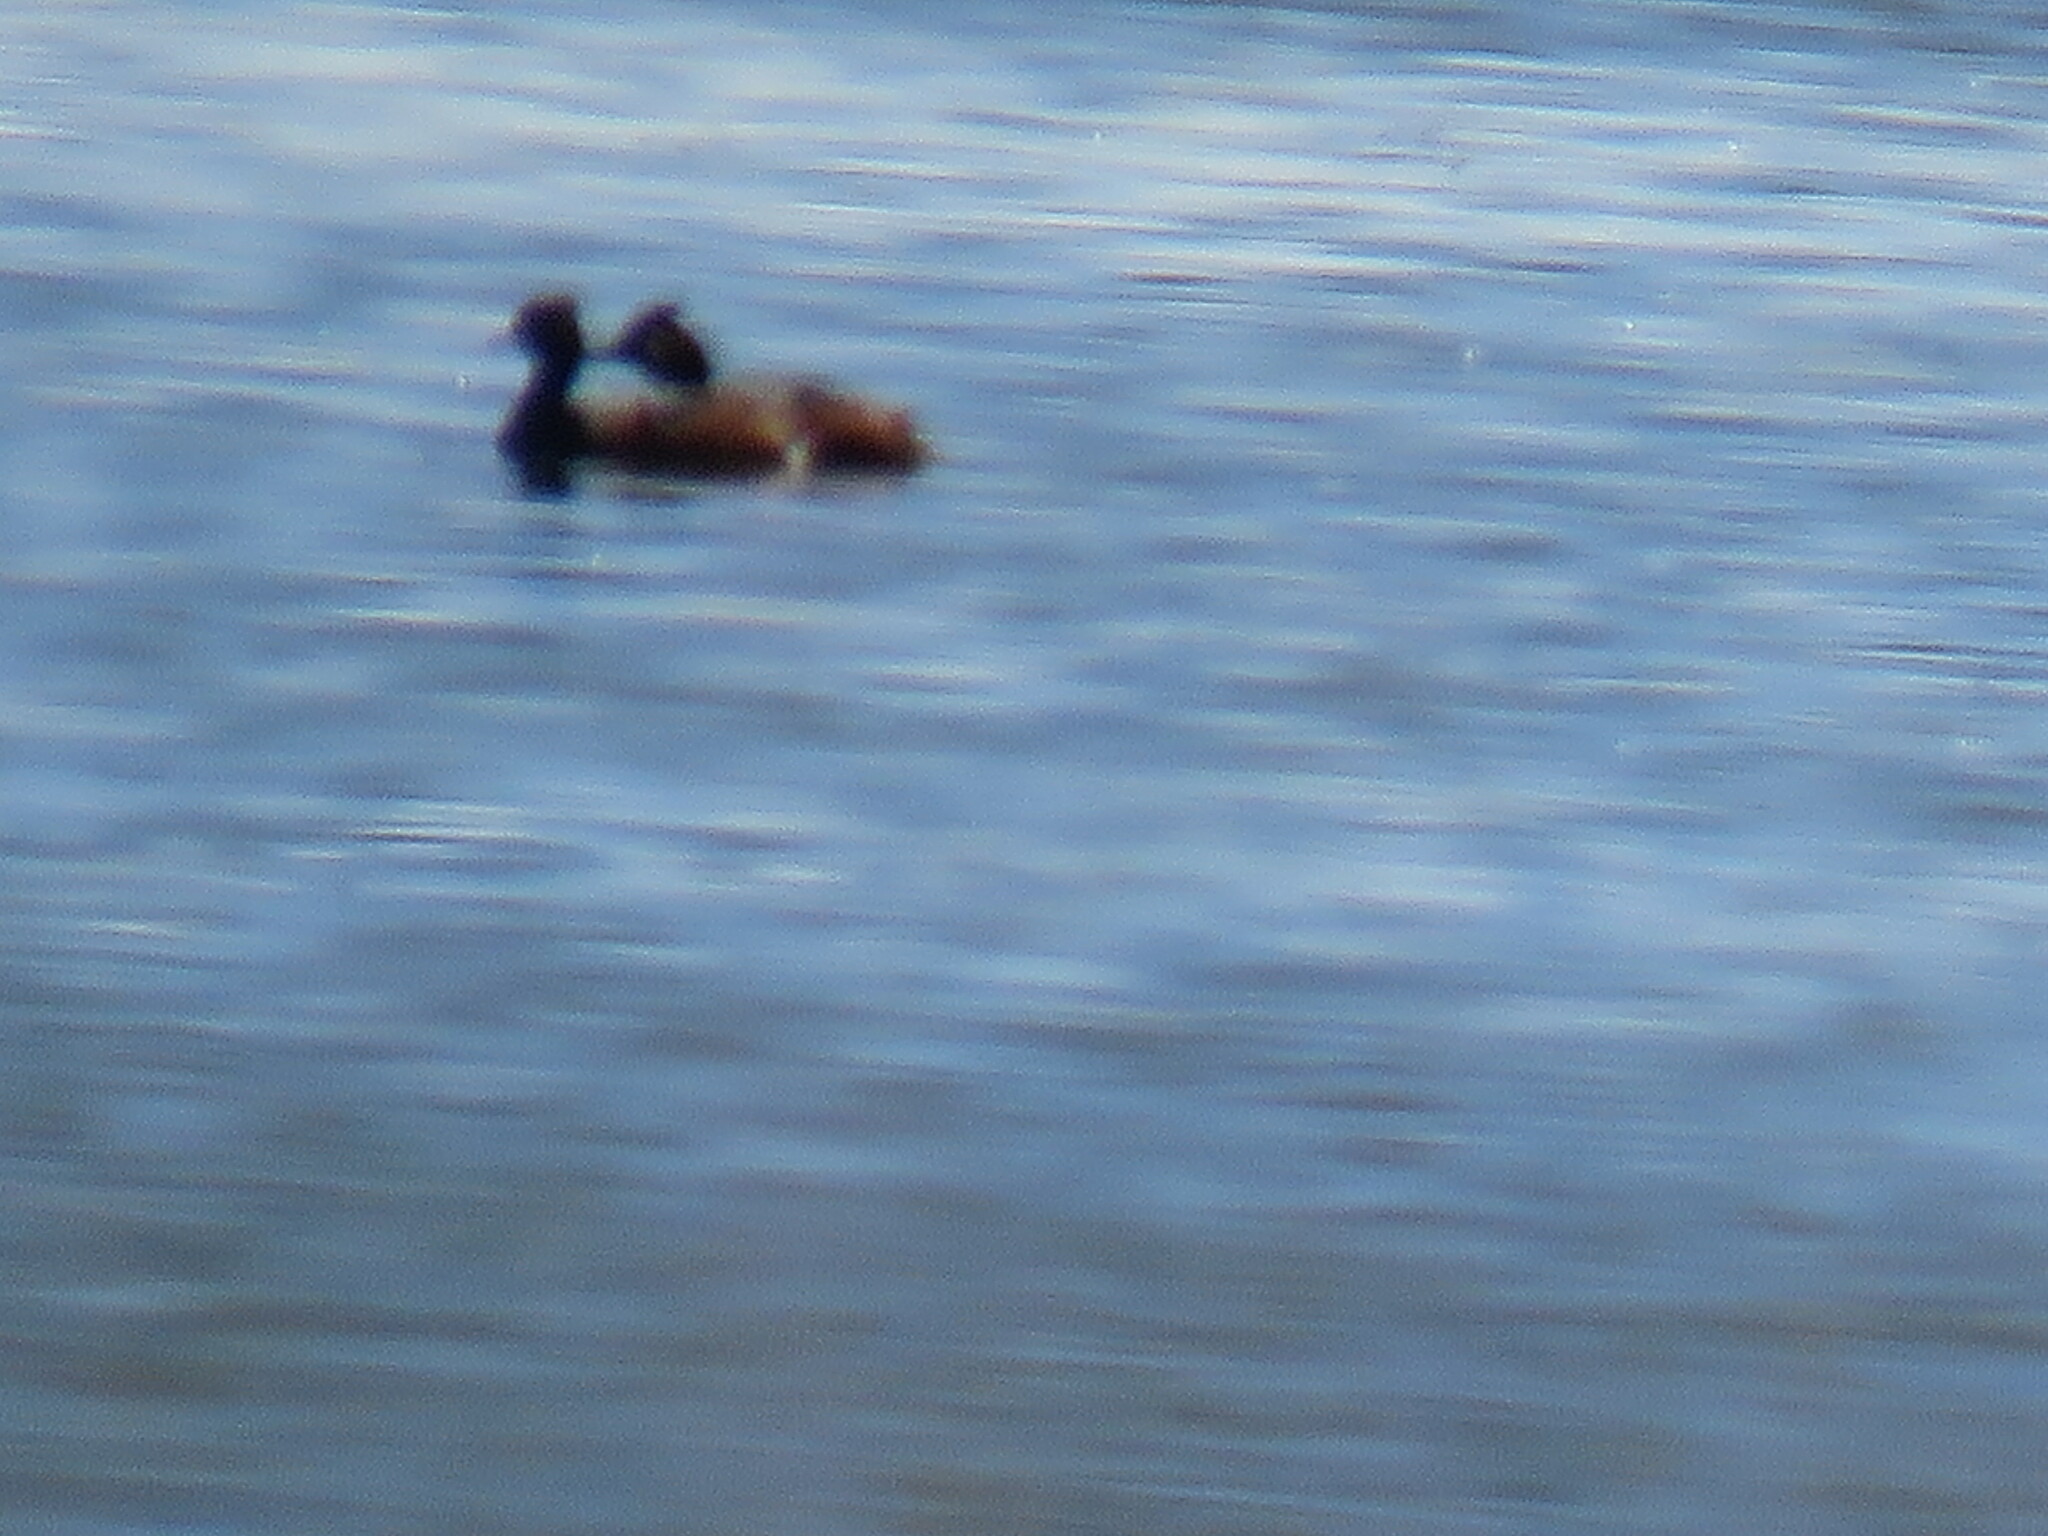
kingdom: Animalia
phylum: Chordata
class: Aves
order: Podicipediformes
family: Podicipedidae
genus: Podiceps
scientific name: Podiceps nigricollis
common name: Black-necked grebe
